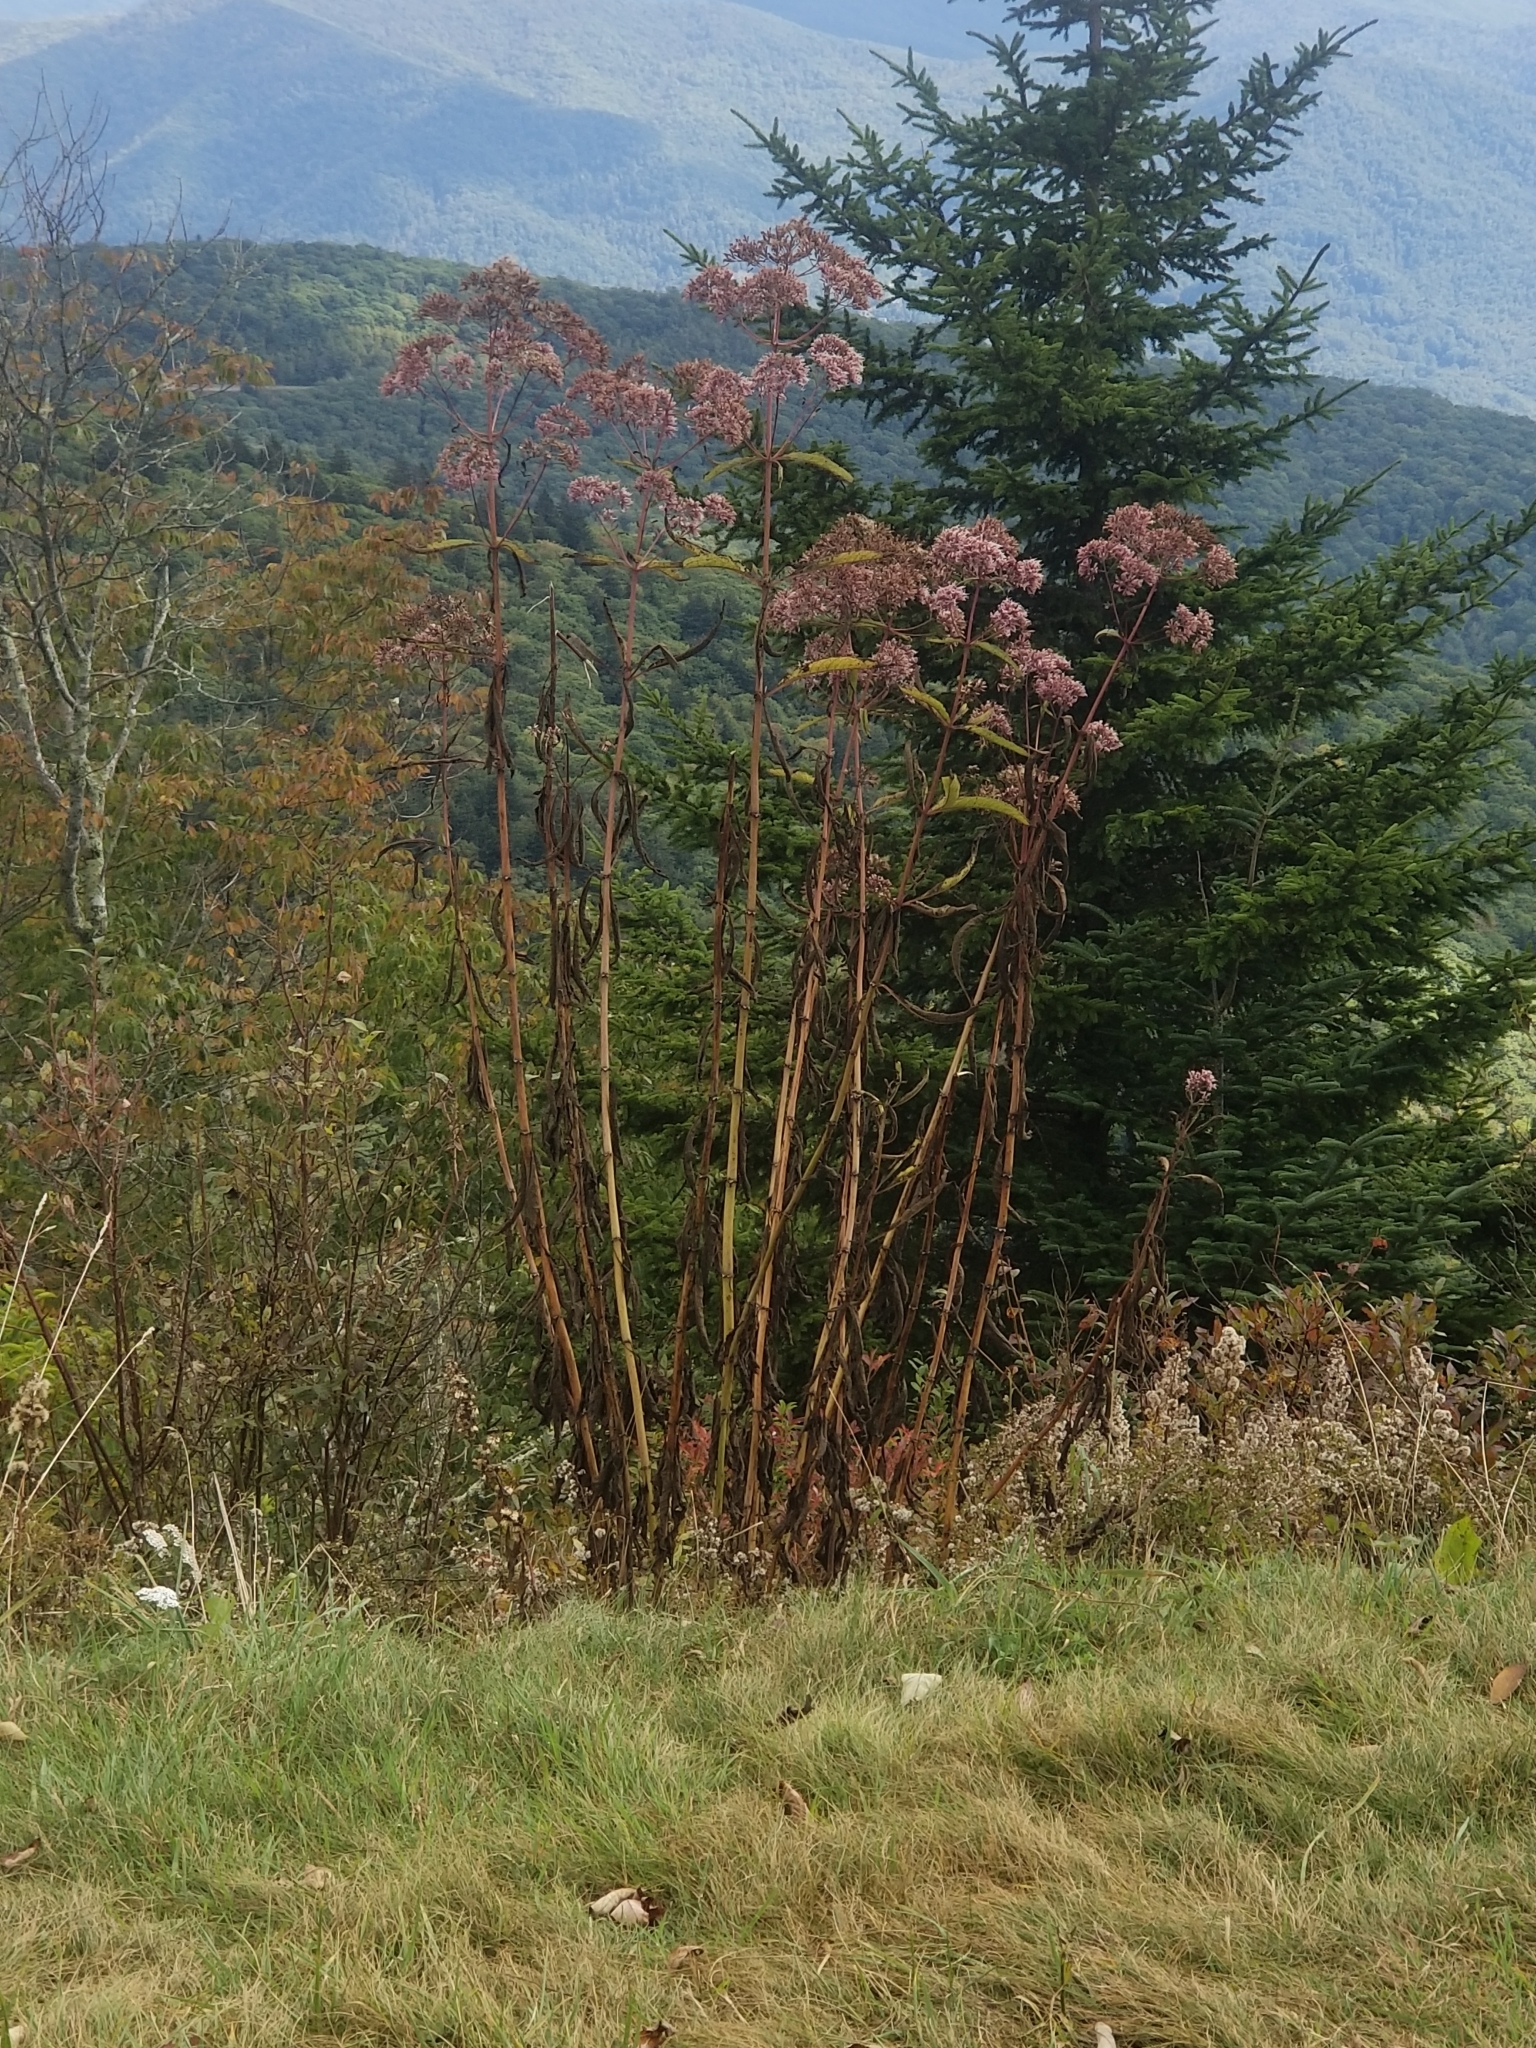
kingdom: Plantae
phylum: Tracheophyta
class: Magnoliopsida
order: Asterales
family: Asteraceae
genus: Eutrochium
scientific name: Eutrochium fistulosum
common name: Trumpetweed
